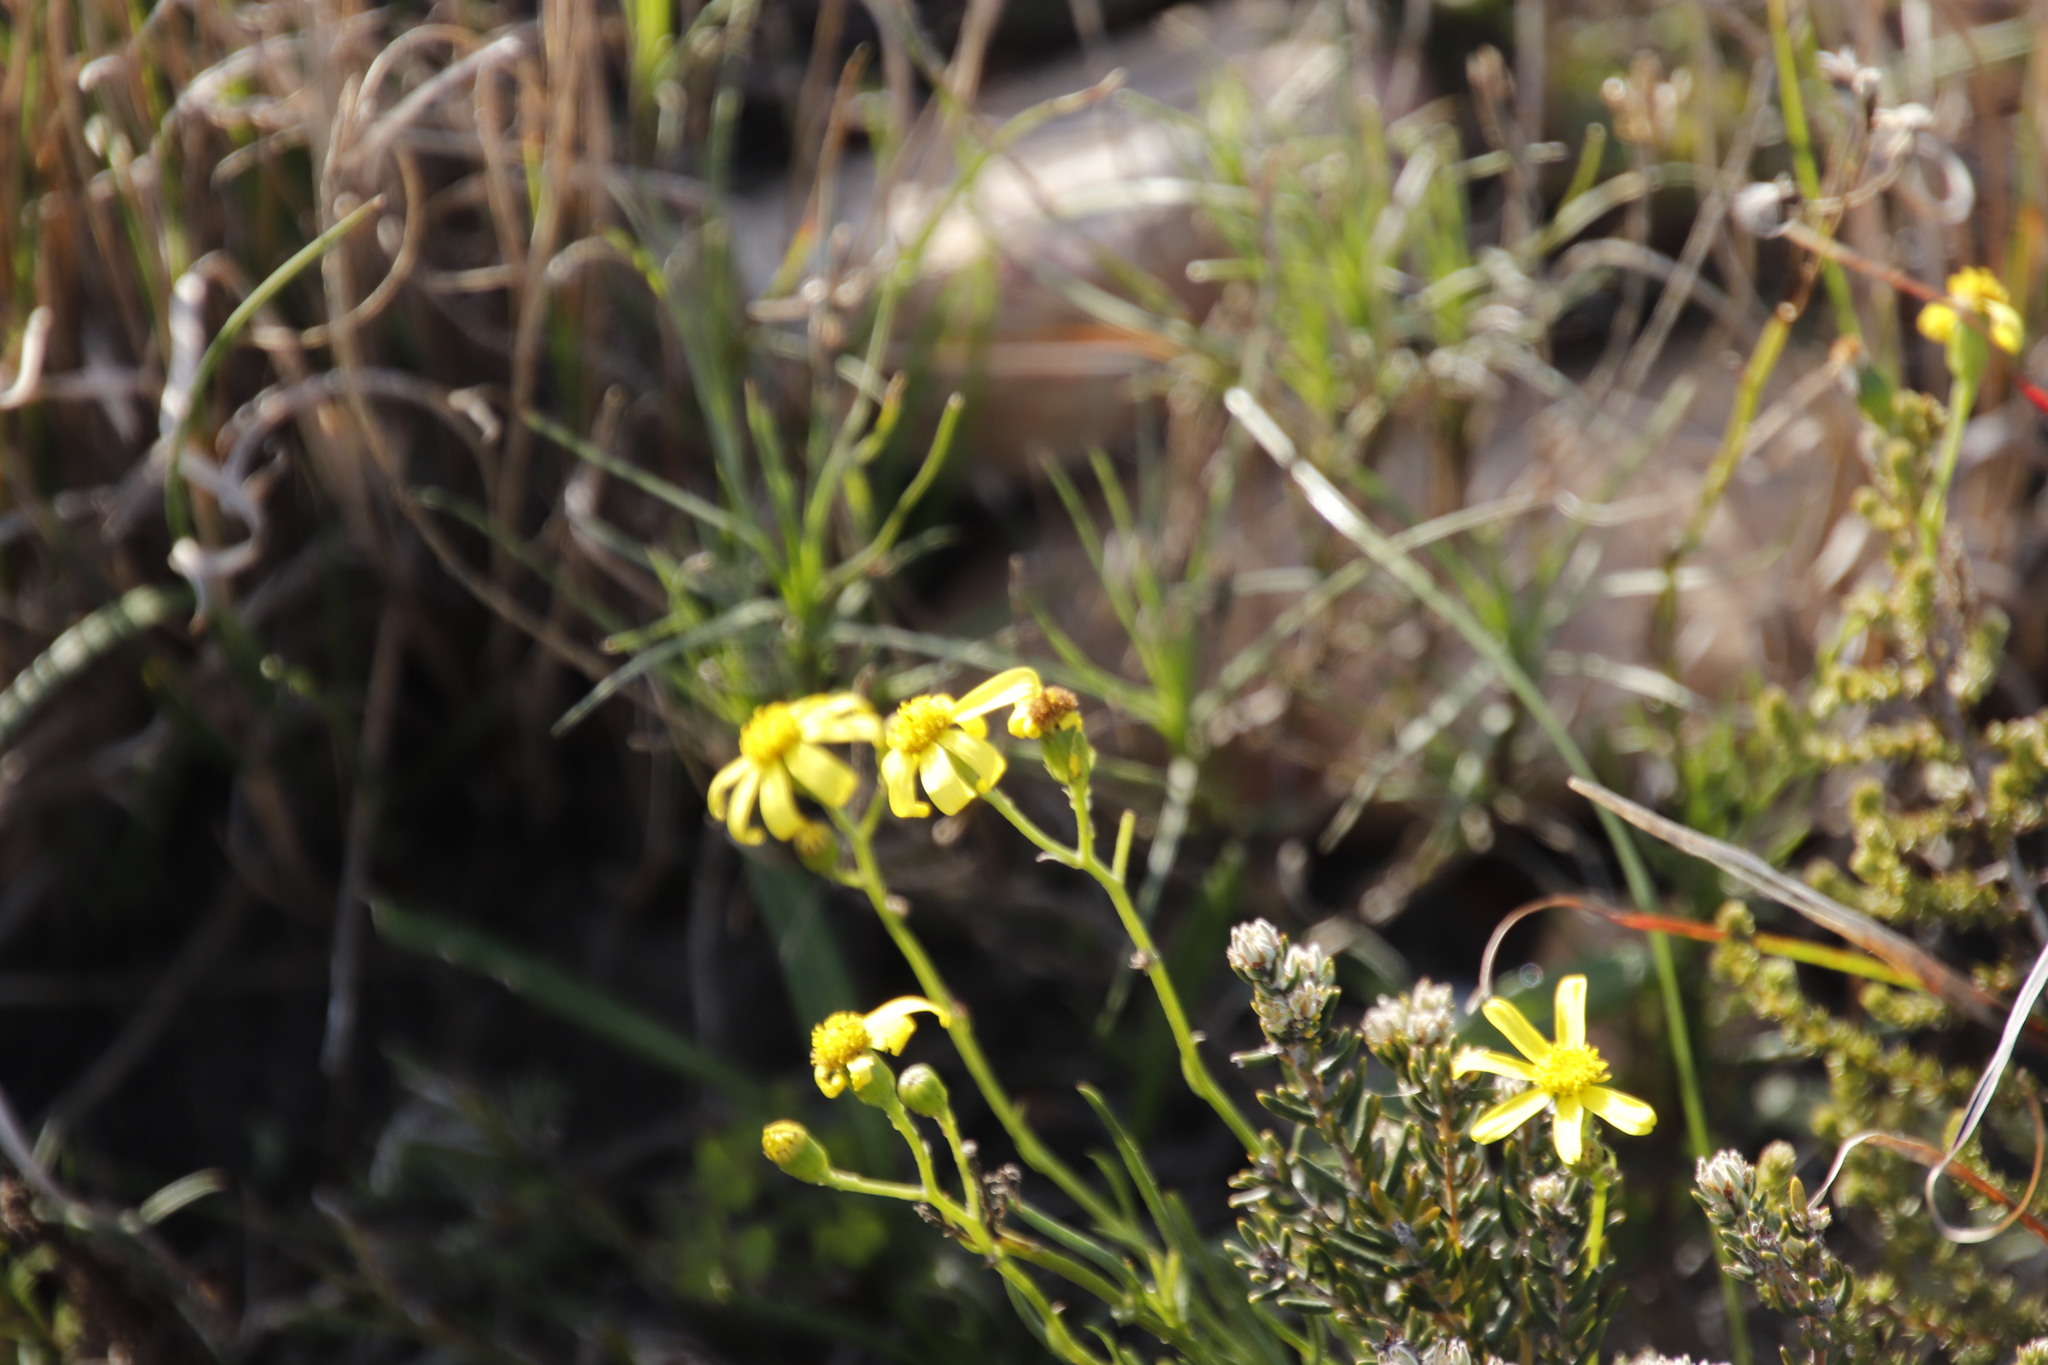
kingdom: Plantae
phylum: Tracheophyta
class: Magnoliopsida
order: Asterales
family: Asteraceae
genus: Senecio
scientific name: Senecio burchellii
